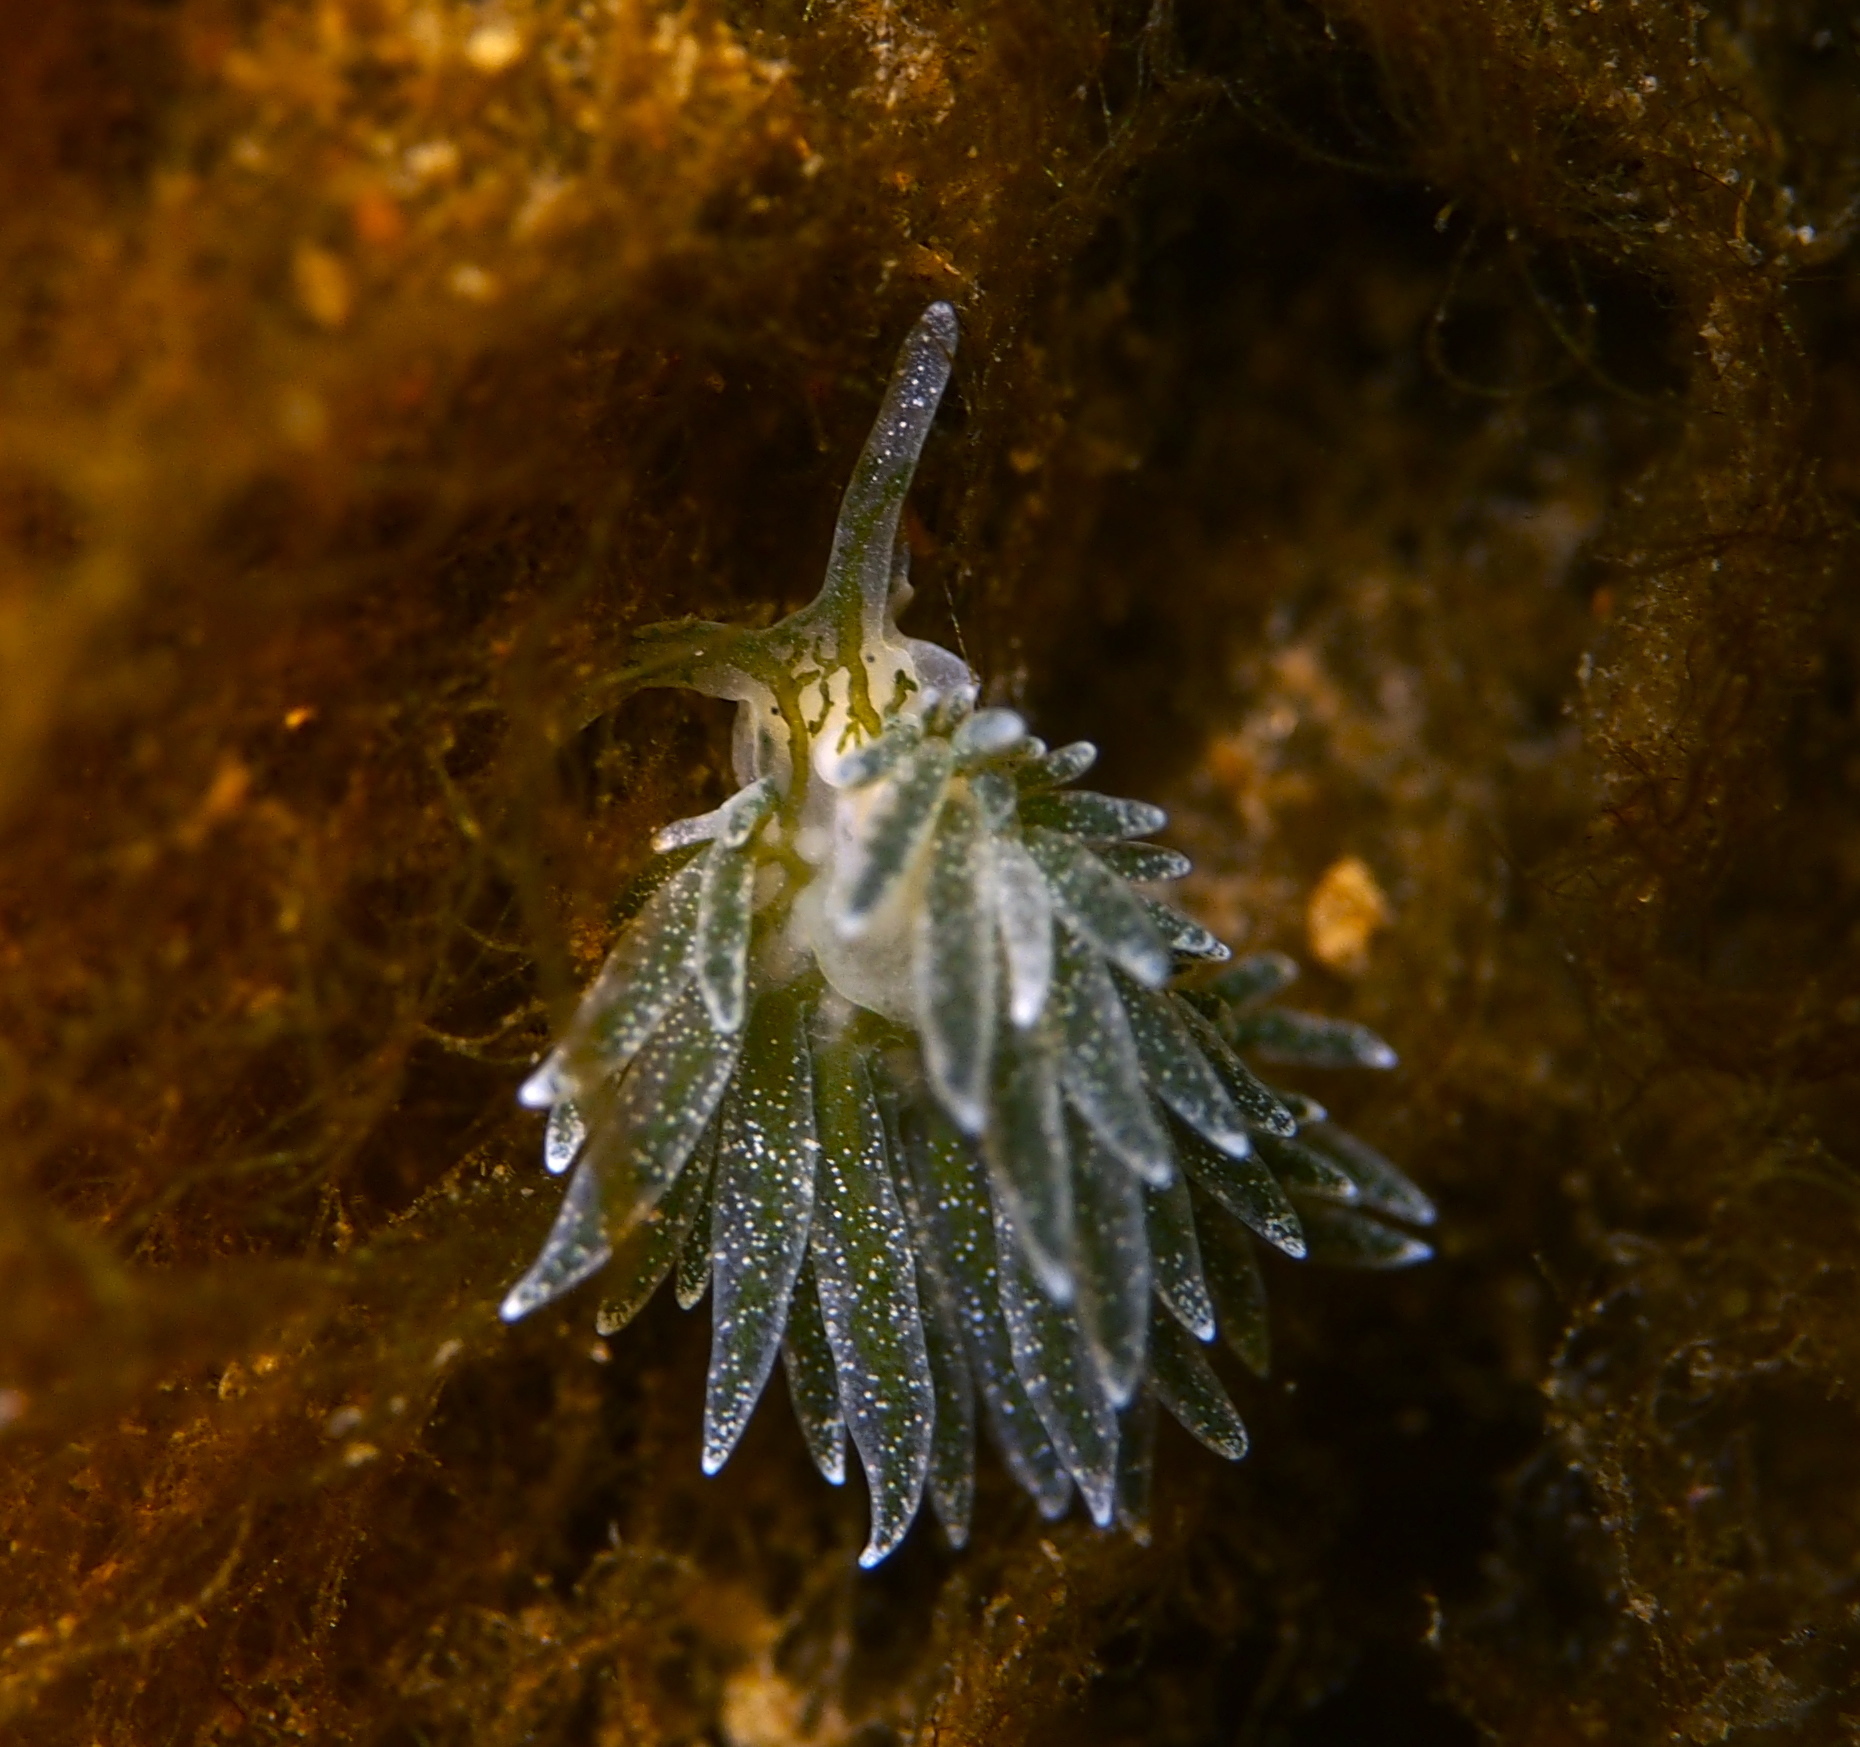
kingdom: Animalia
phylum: Mollusca
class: Gastropoda
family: Limapontiidae
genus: Placida
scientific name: Placida dendritica
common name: Dendritic nudibranch
